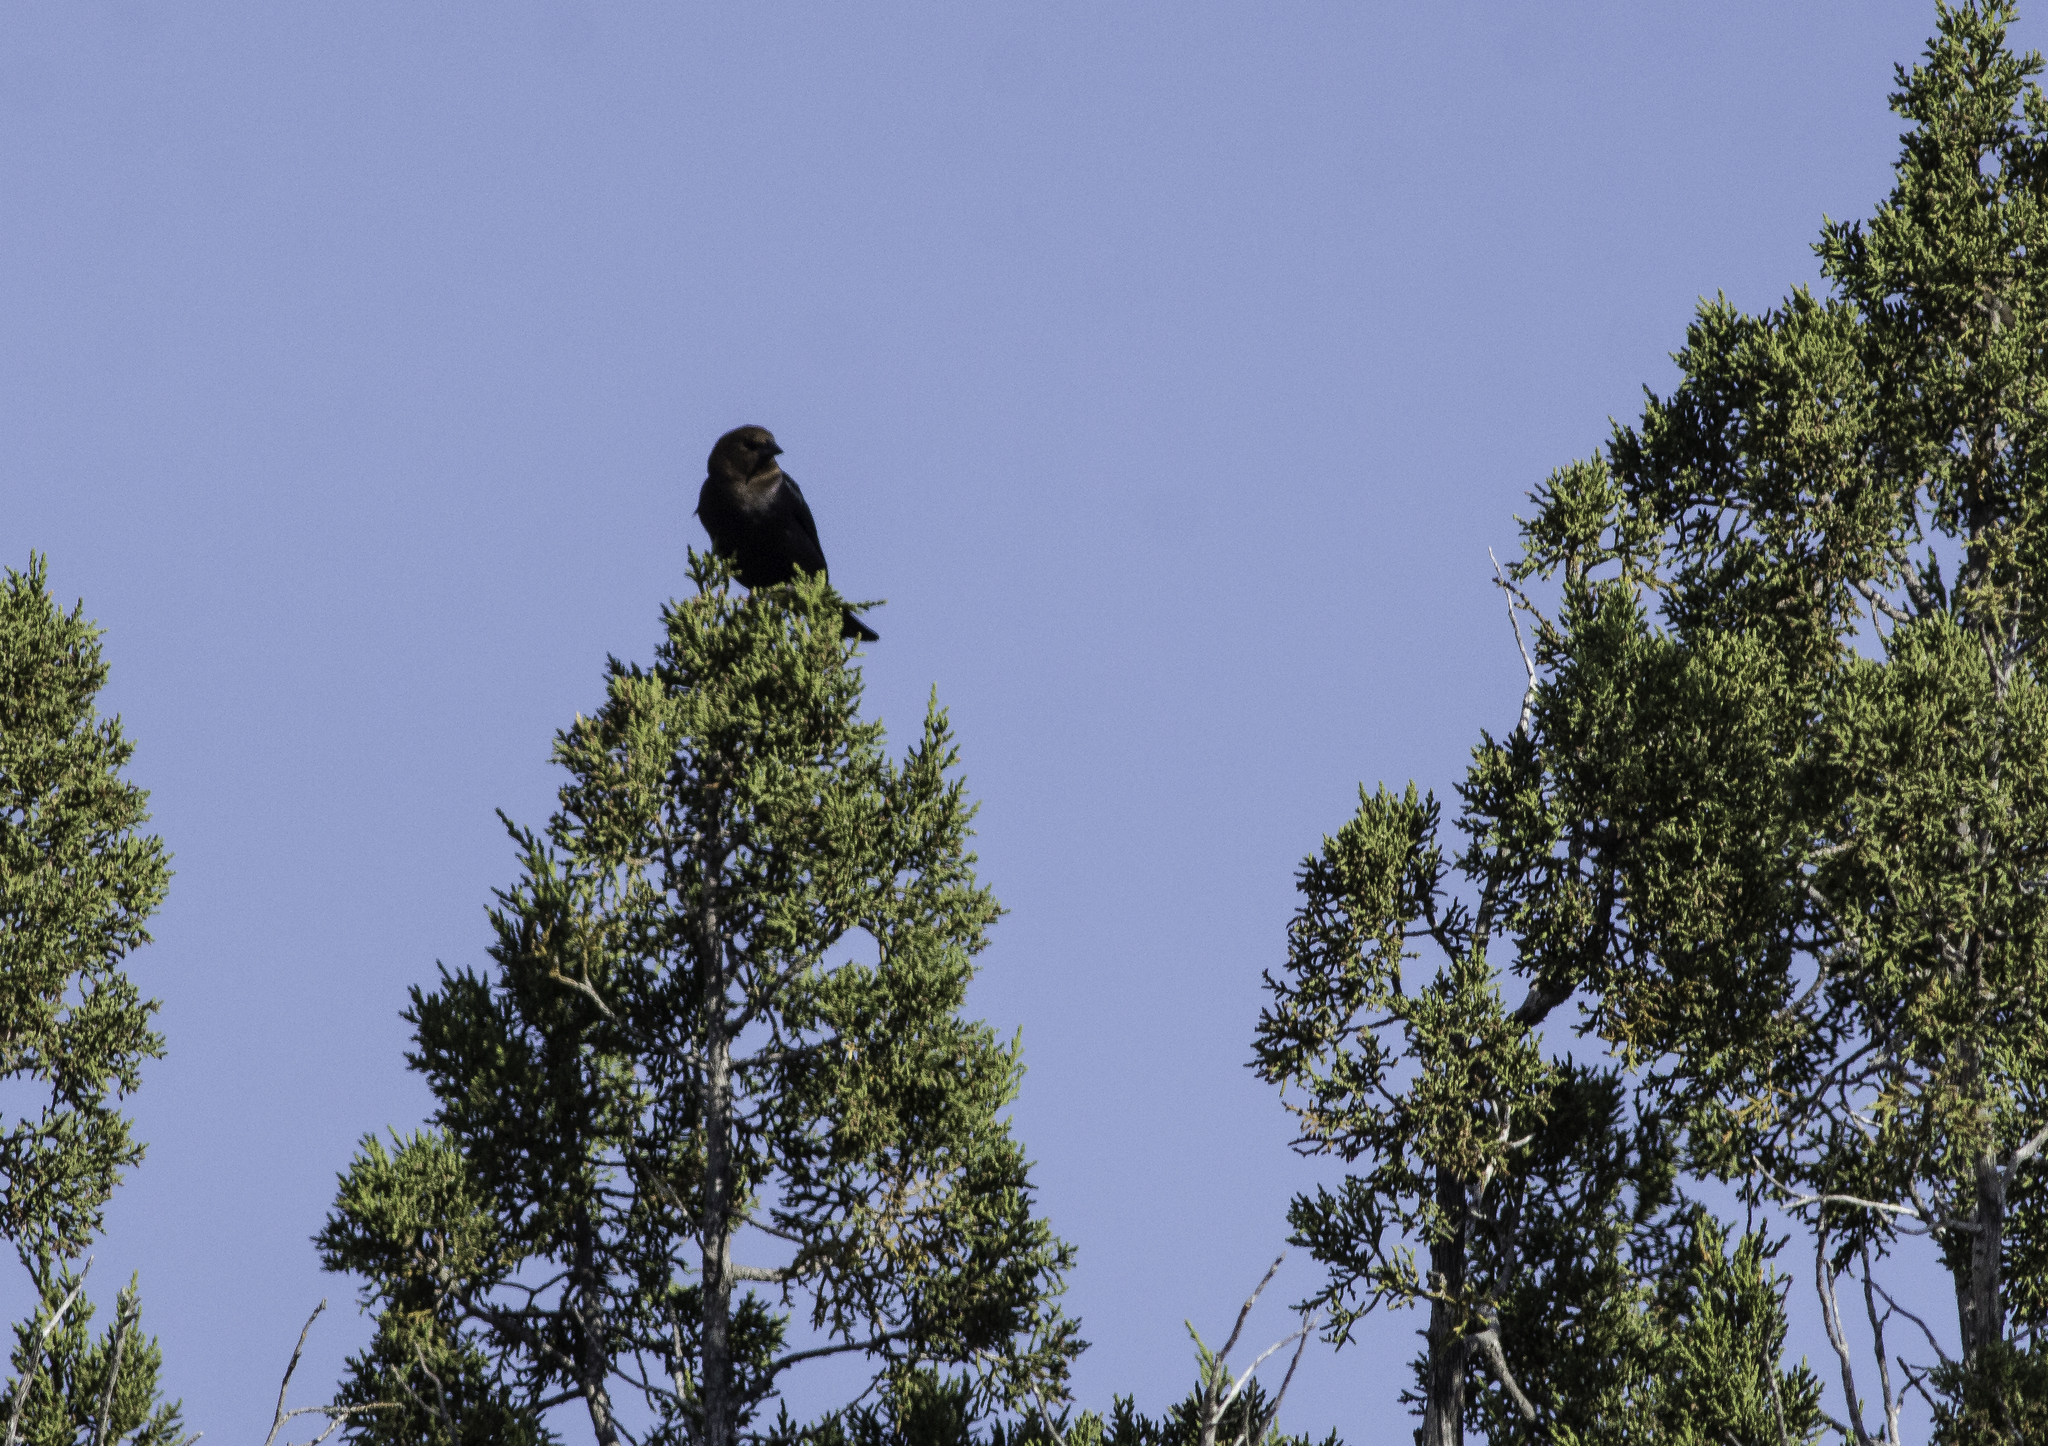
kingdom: Animalia
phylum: Chordata
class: Aves
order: Passeriformes
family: Icteridae
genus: Molothrus
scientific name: Molothrus ater
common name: Brown-headed cowbird
